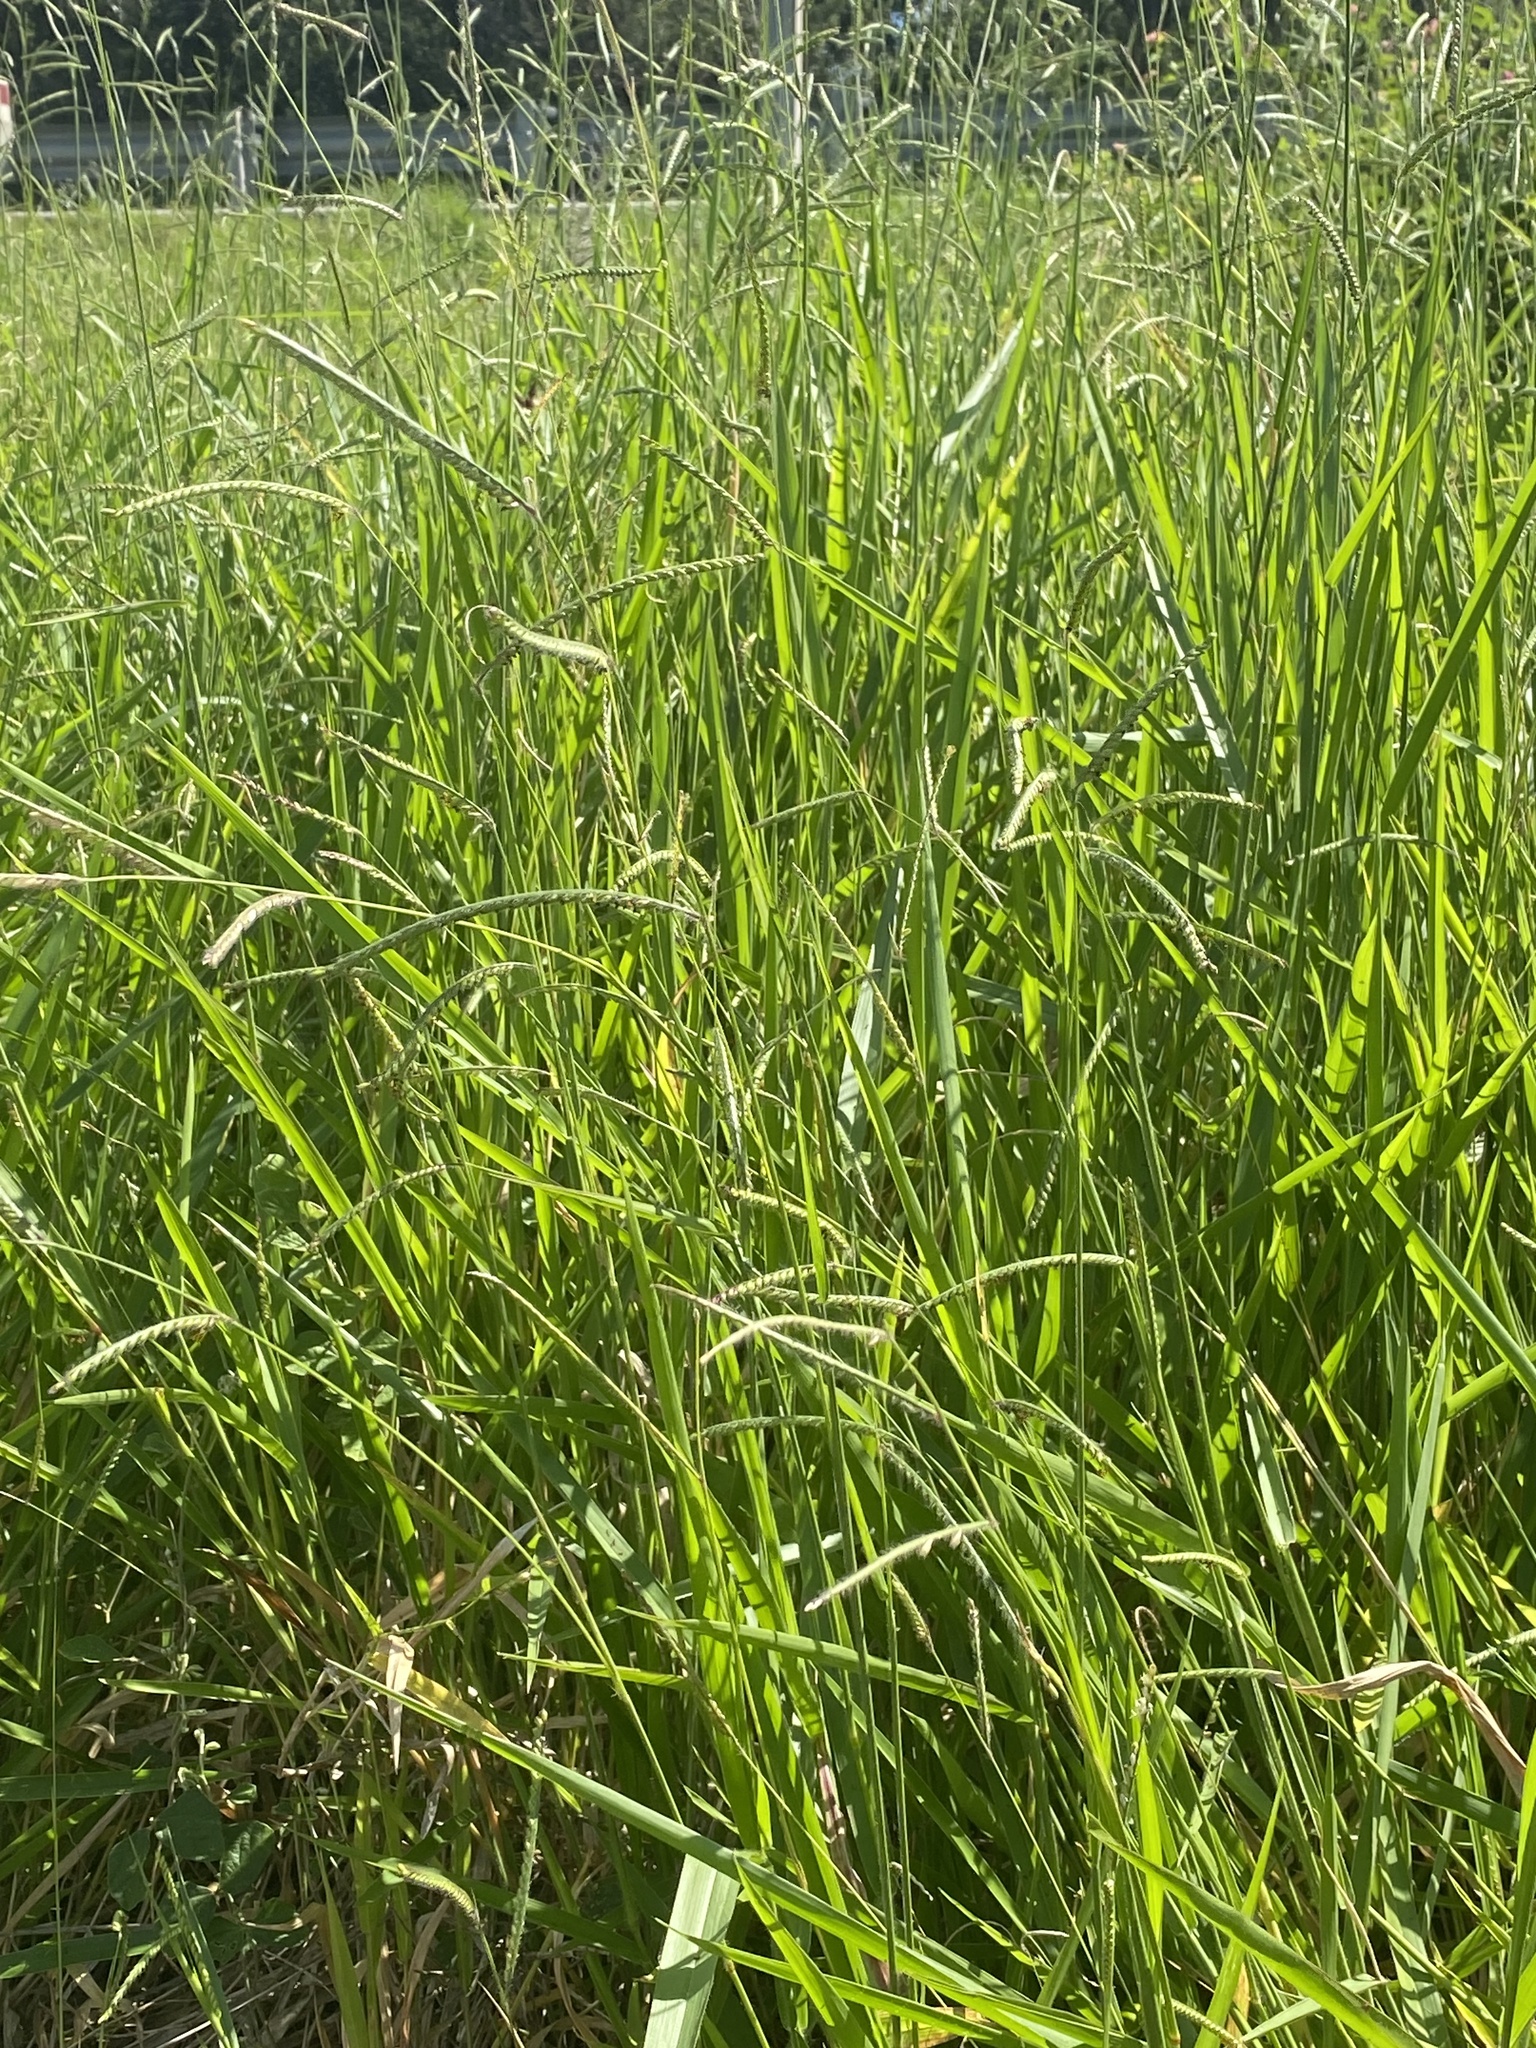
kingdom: Plantae
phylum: Tracheophyta
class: Liliopsida
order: Poales
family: Poaceae
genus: Urochloa
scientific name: Urochloa eminii
